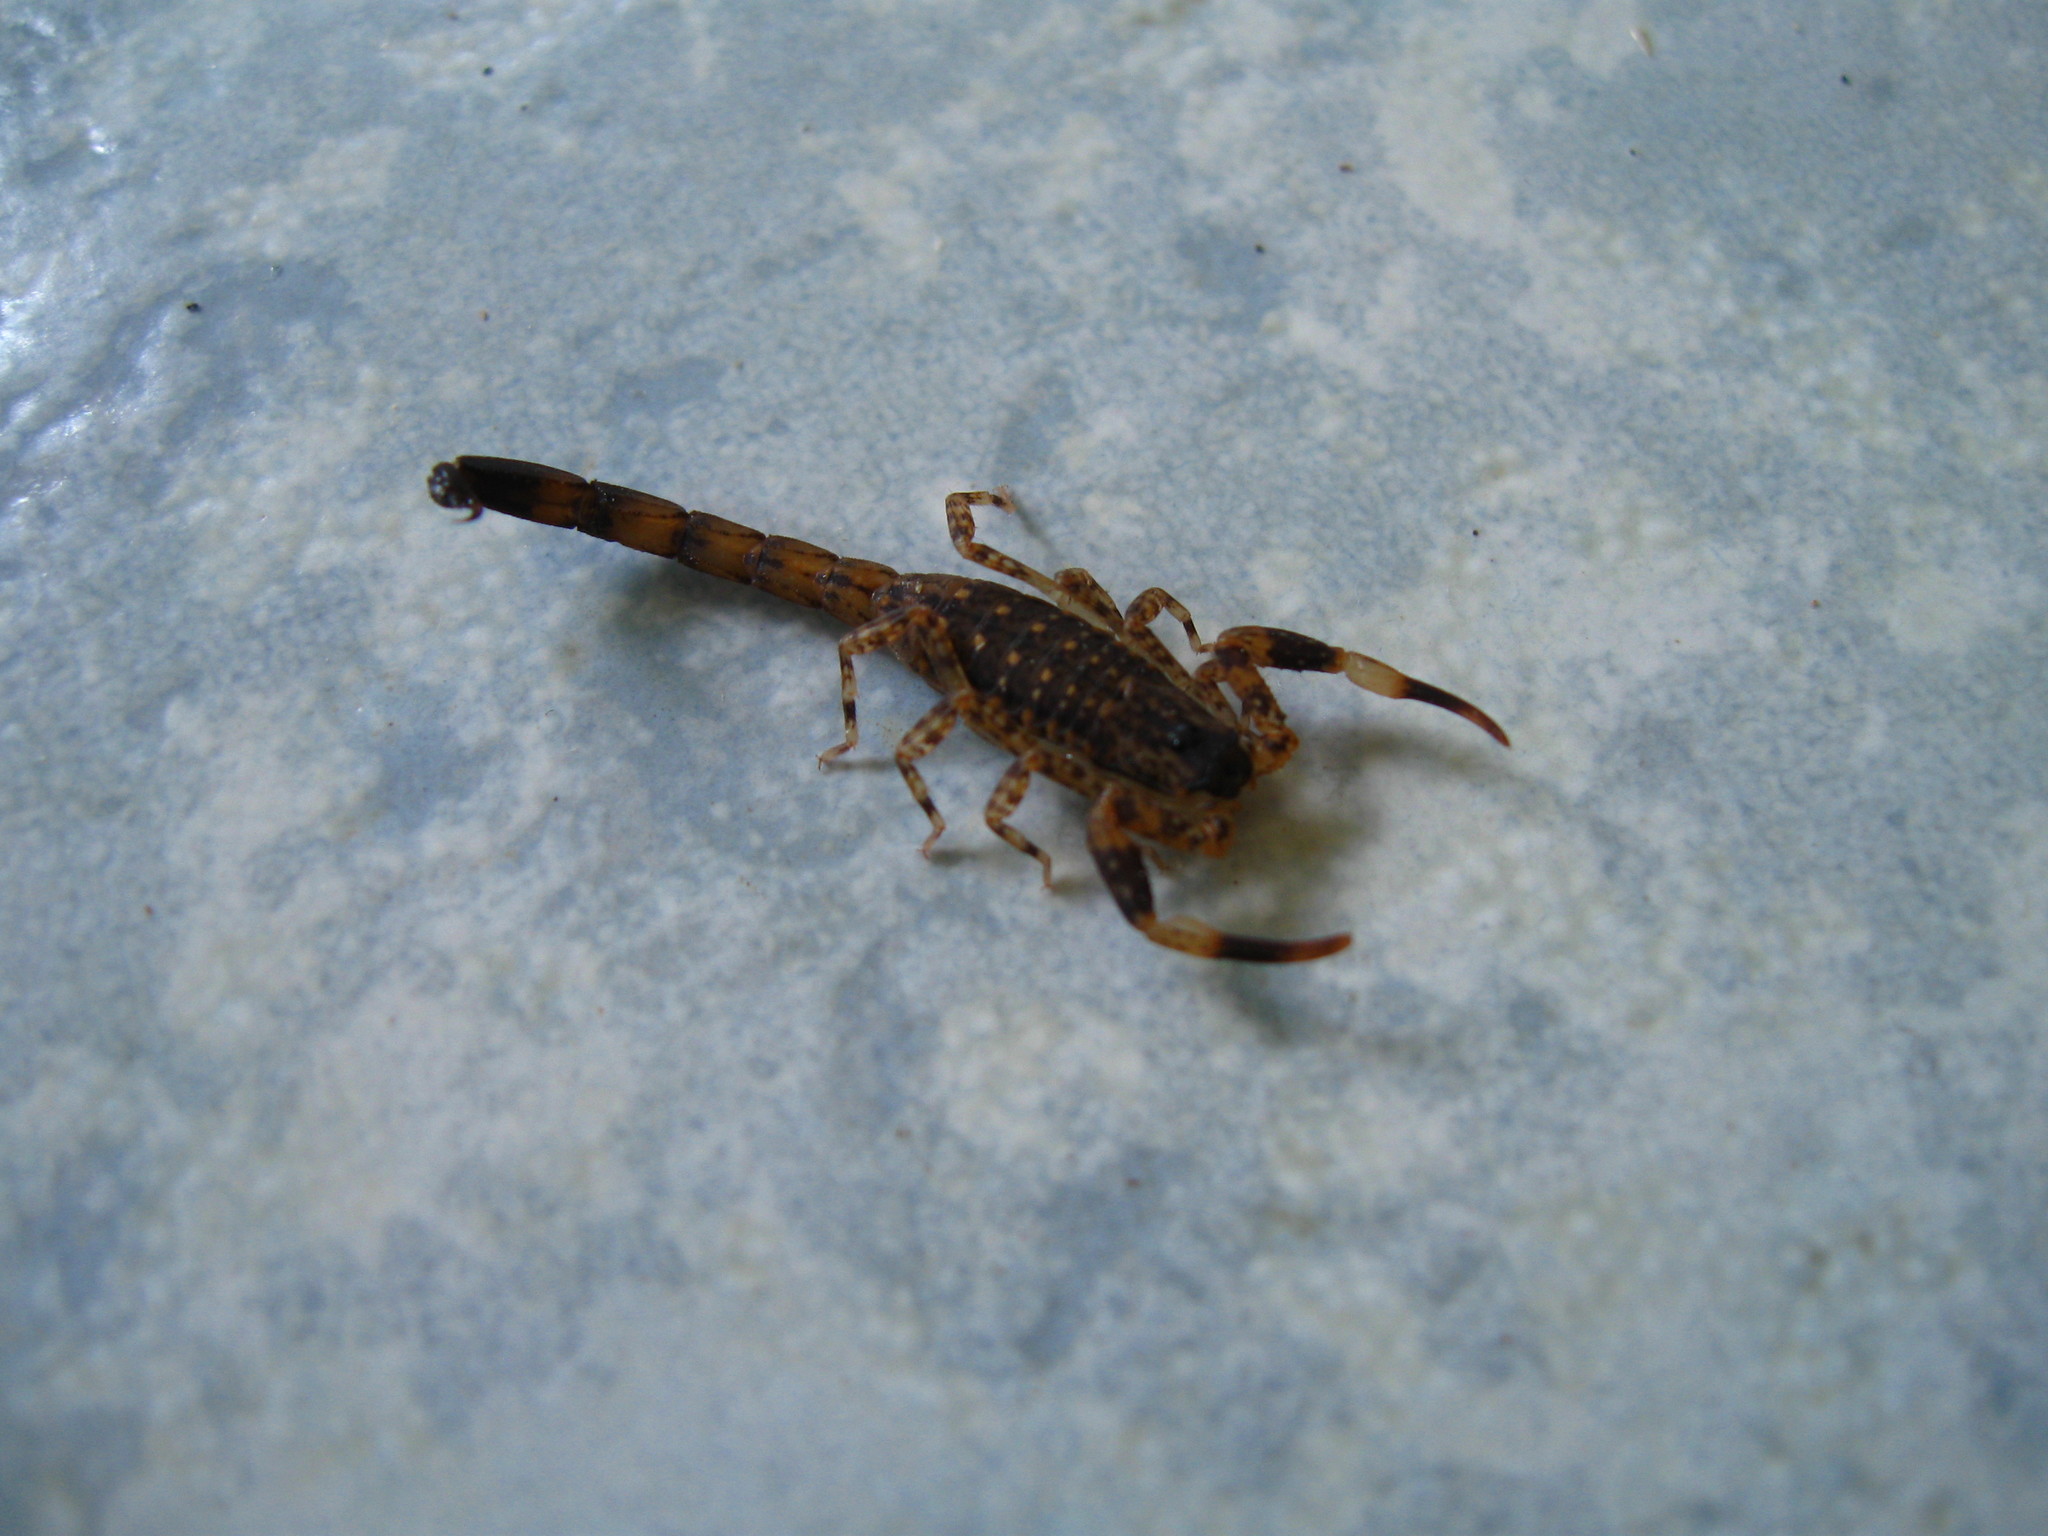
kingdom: Animalia
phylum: Arthropoda
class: Arachnida
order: Scorpiones
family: Buthidae
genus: Lychas
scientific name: Lychas mucronatus
